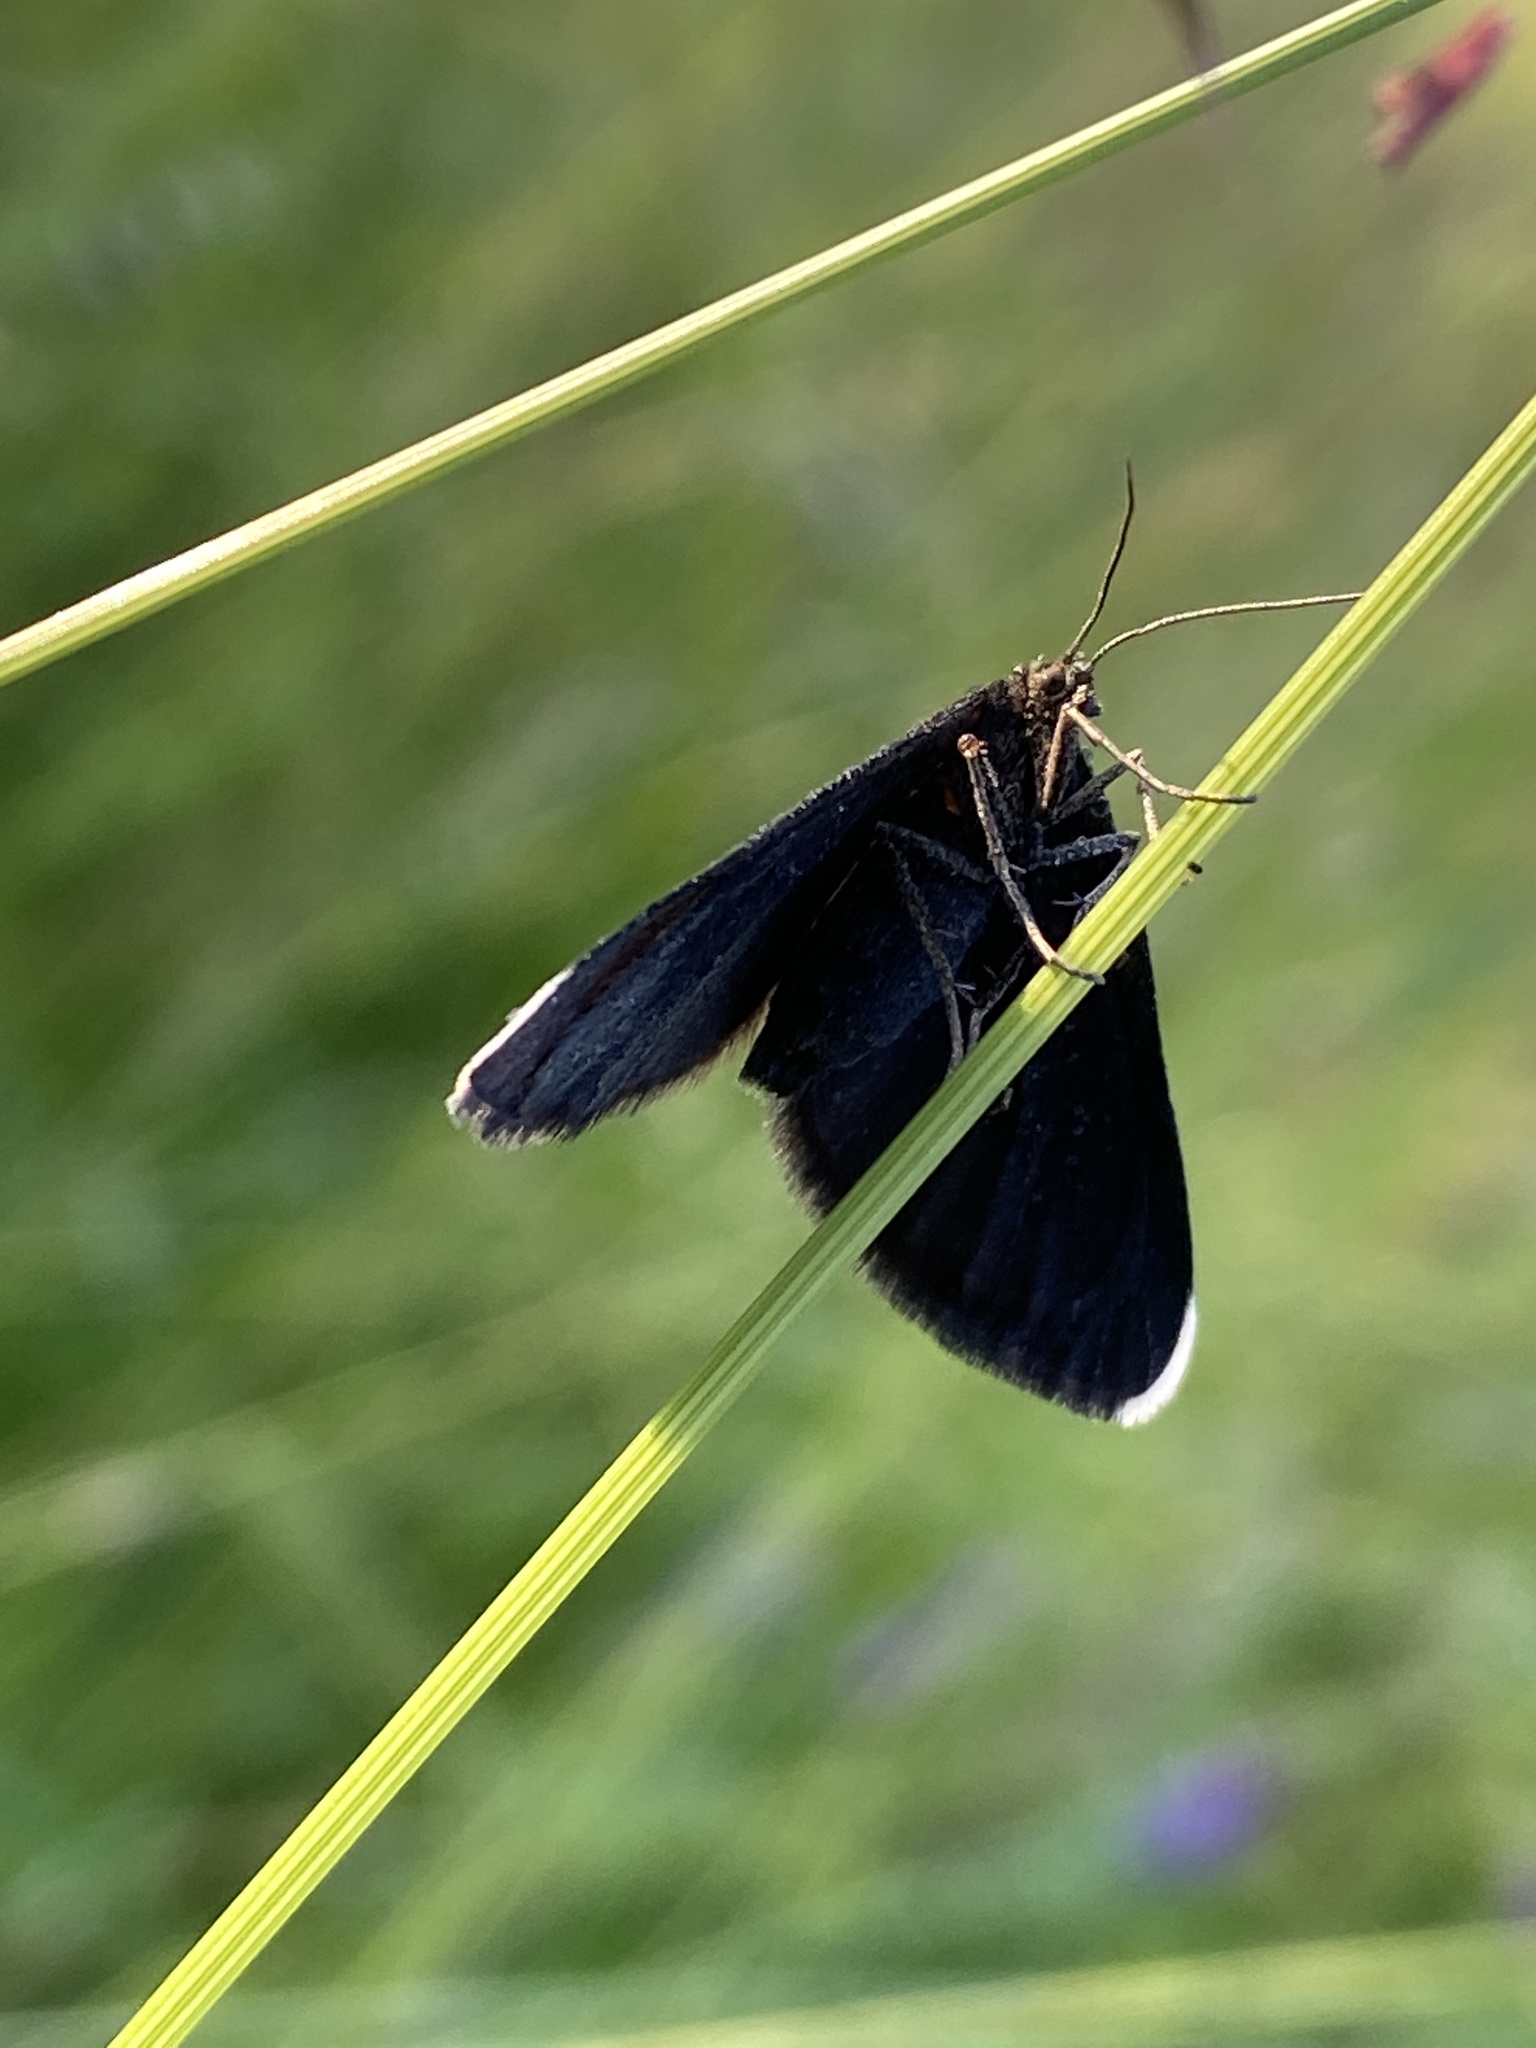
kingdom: Animalia
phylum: Arthropoda
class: Insecta
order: Lepidoptera
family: Geometridae
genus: Odezia
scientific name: Odezia atrata
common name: Chimney sweeper
